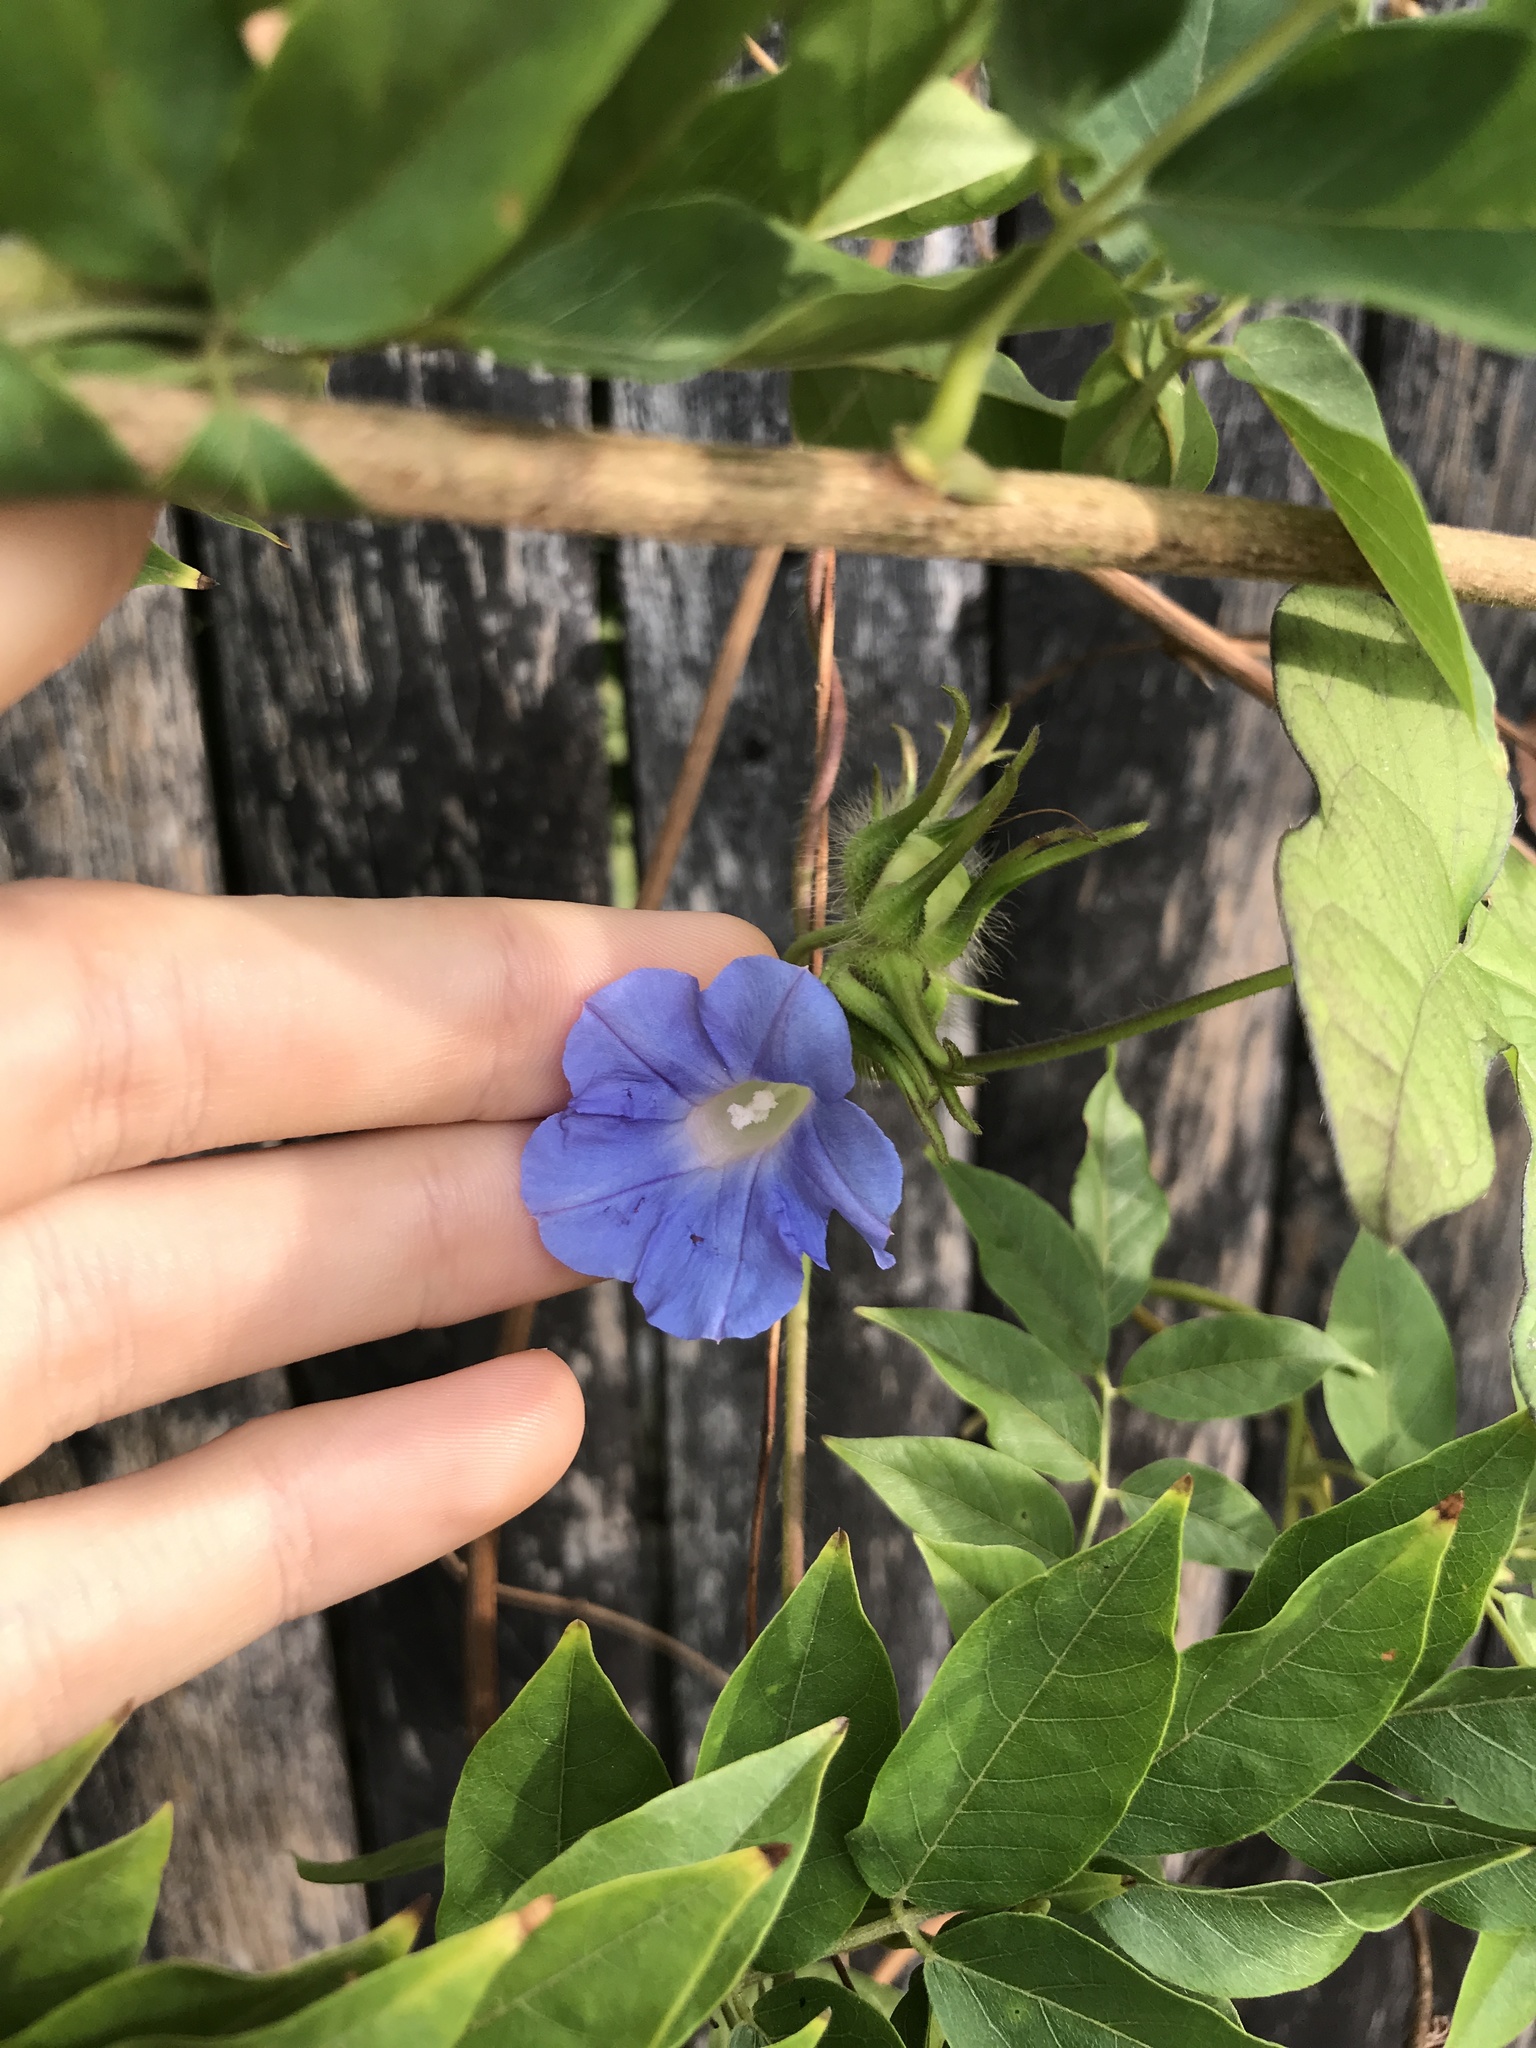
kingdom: Plantae
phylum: Tracheophyta
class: Magnoliopsida
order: Solanales
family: Convolvulaceae
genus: Ipomoea
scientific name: Ipomoea hederacea
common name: Ivy-leaved morning-glory
